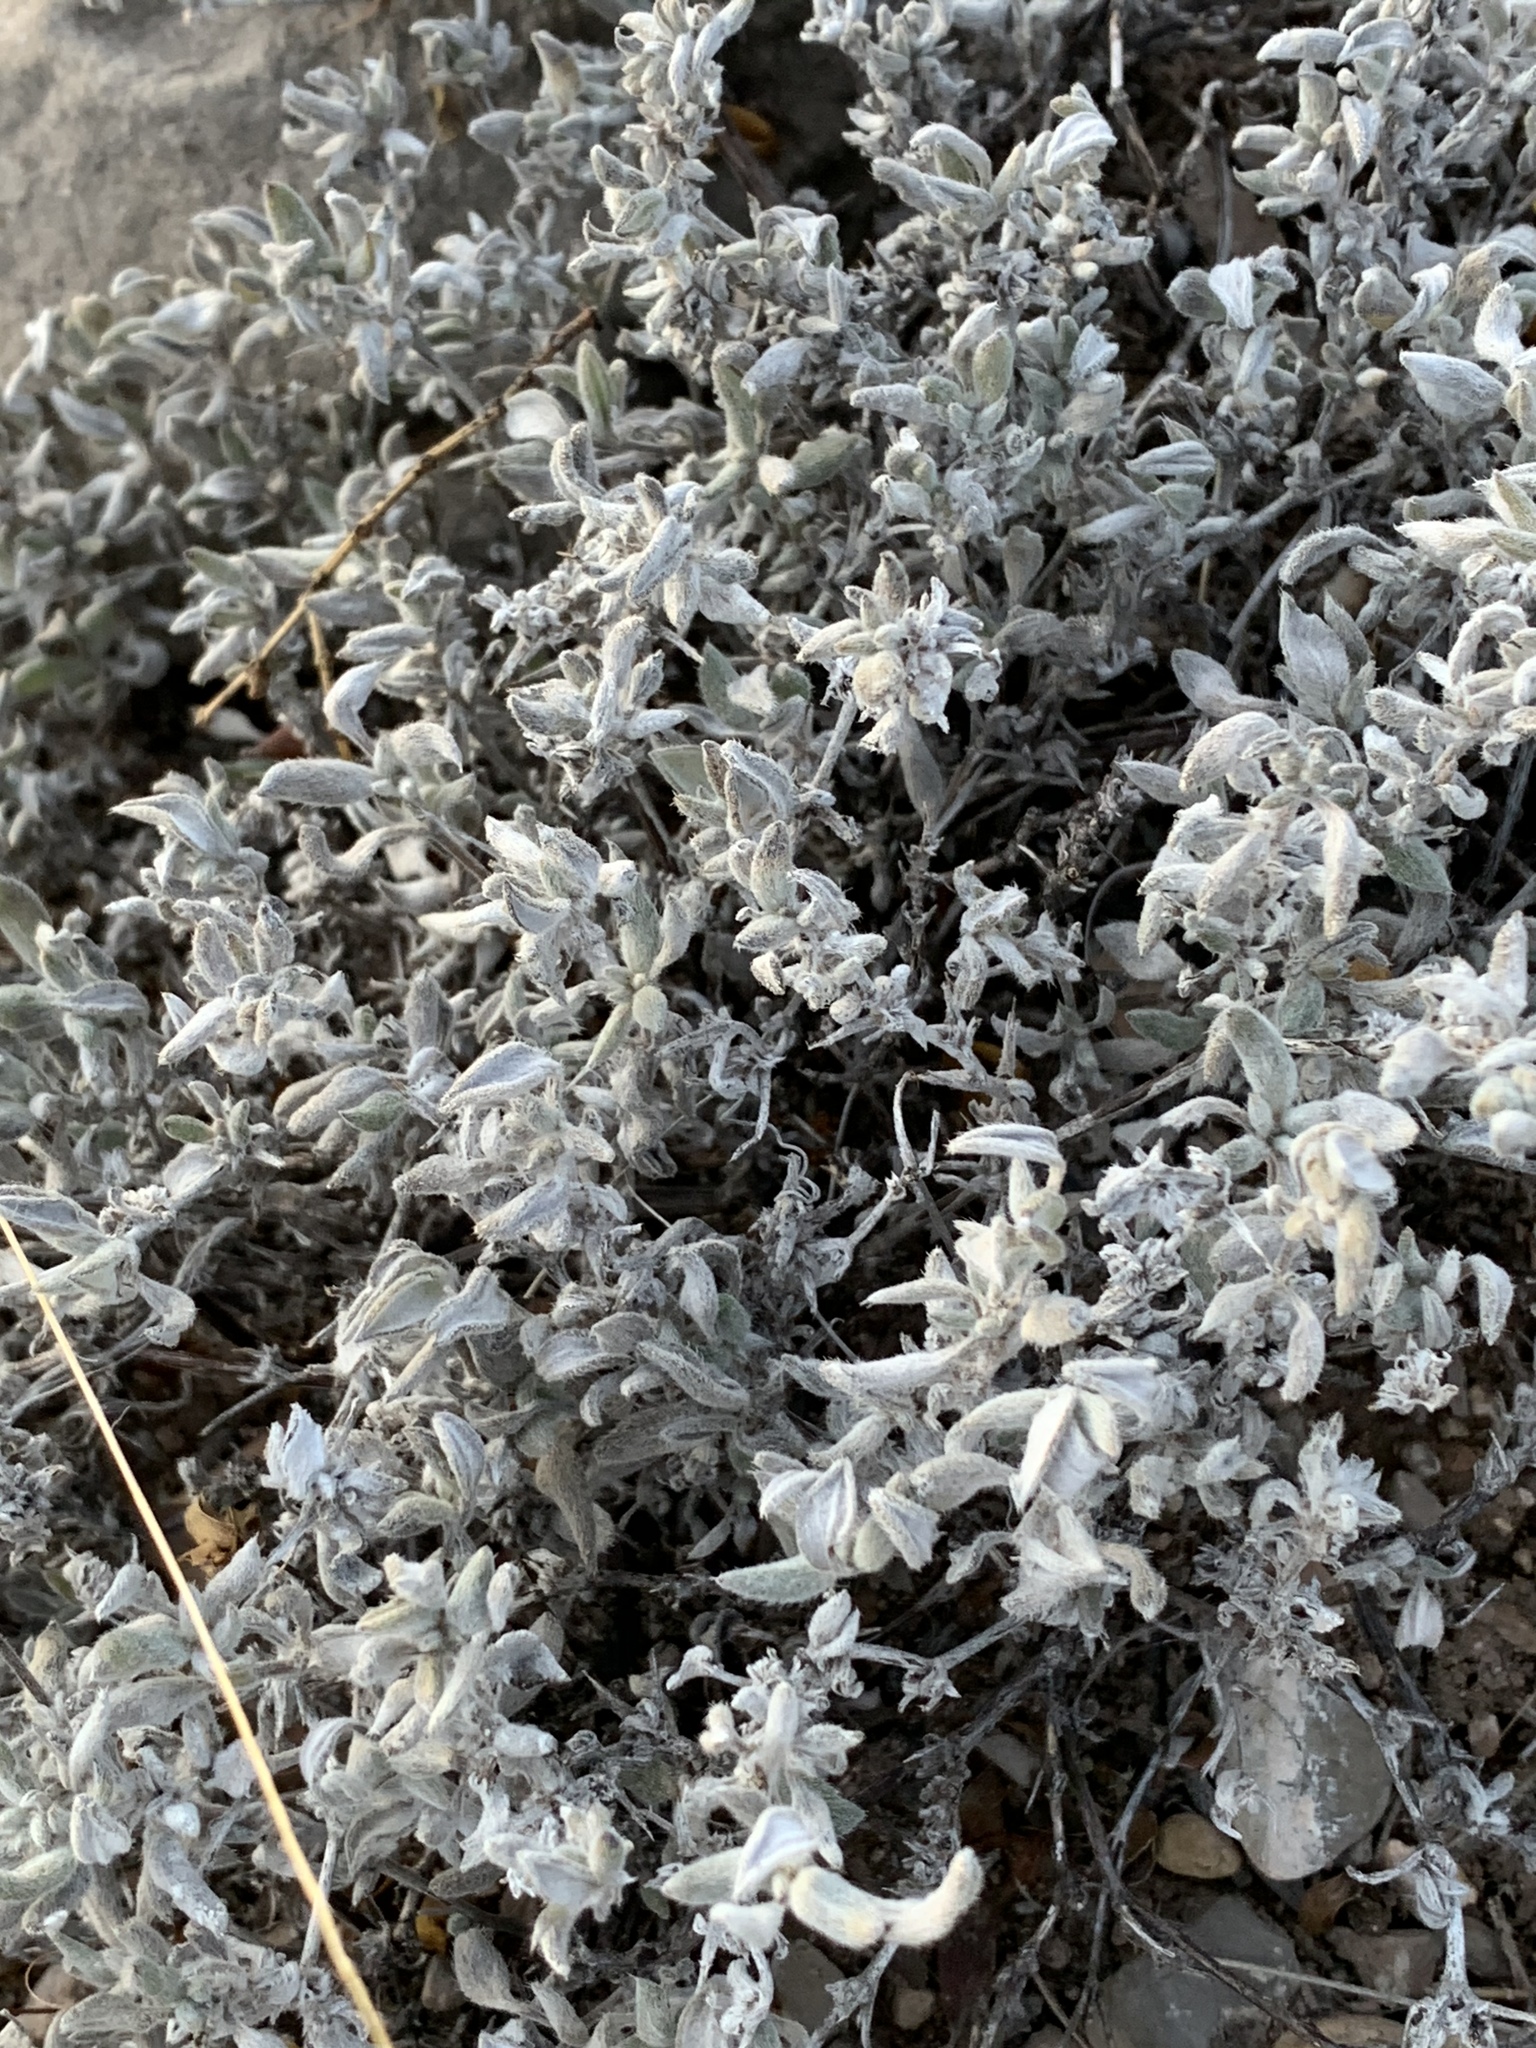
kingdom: Plantae
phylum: Tracheophyta
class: Magnoliopsida
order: Boraginales
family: Ehretiaceae
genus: Tiquilia
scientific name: Tiquilia canescens
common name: Hairy tiquilia
